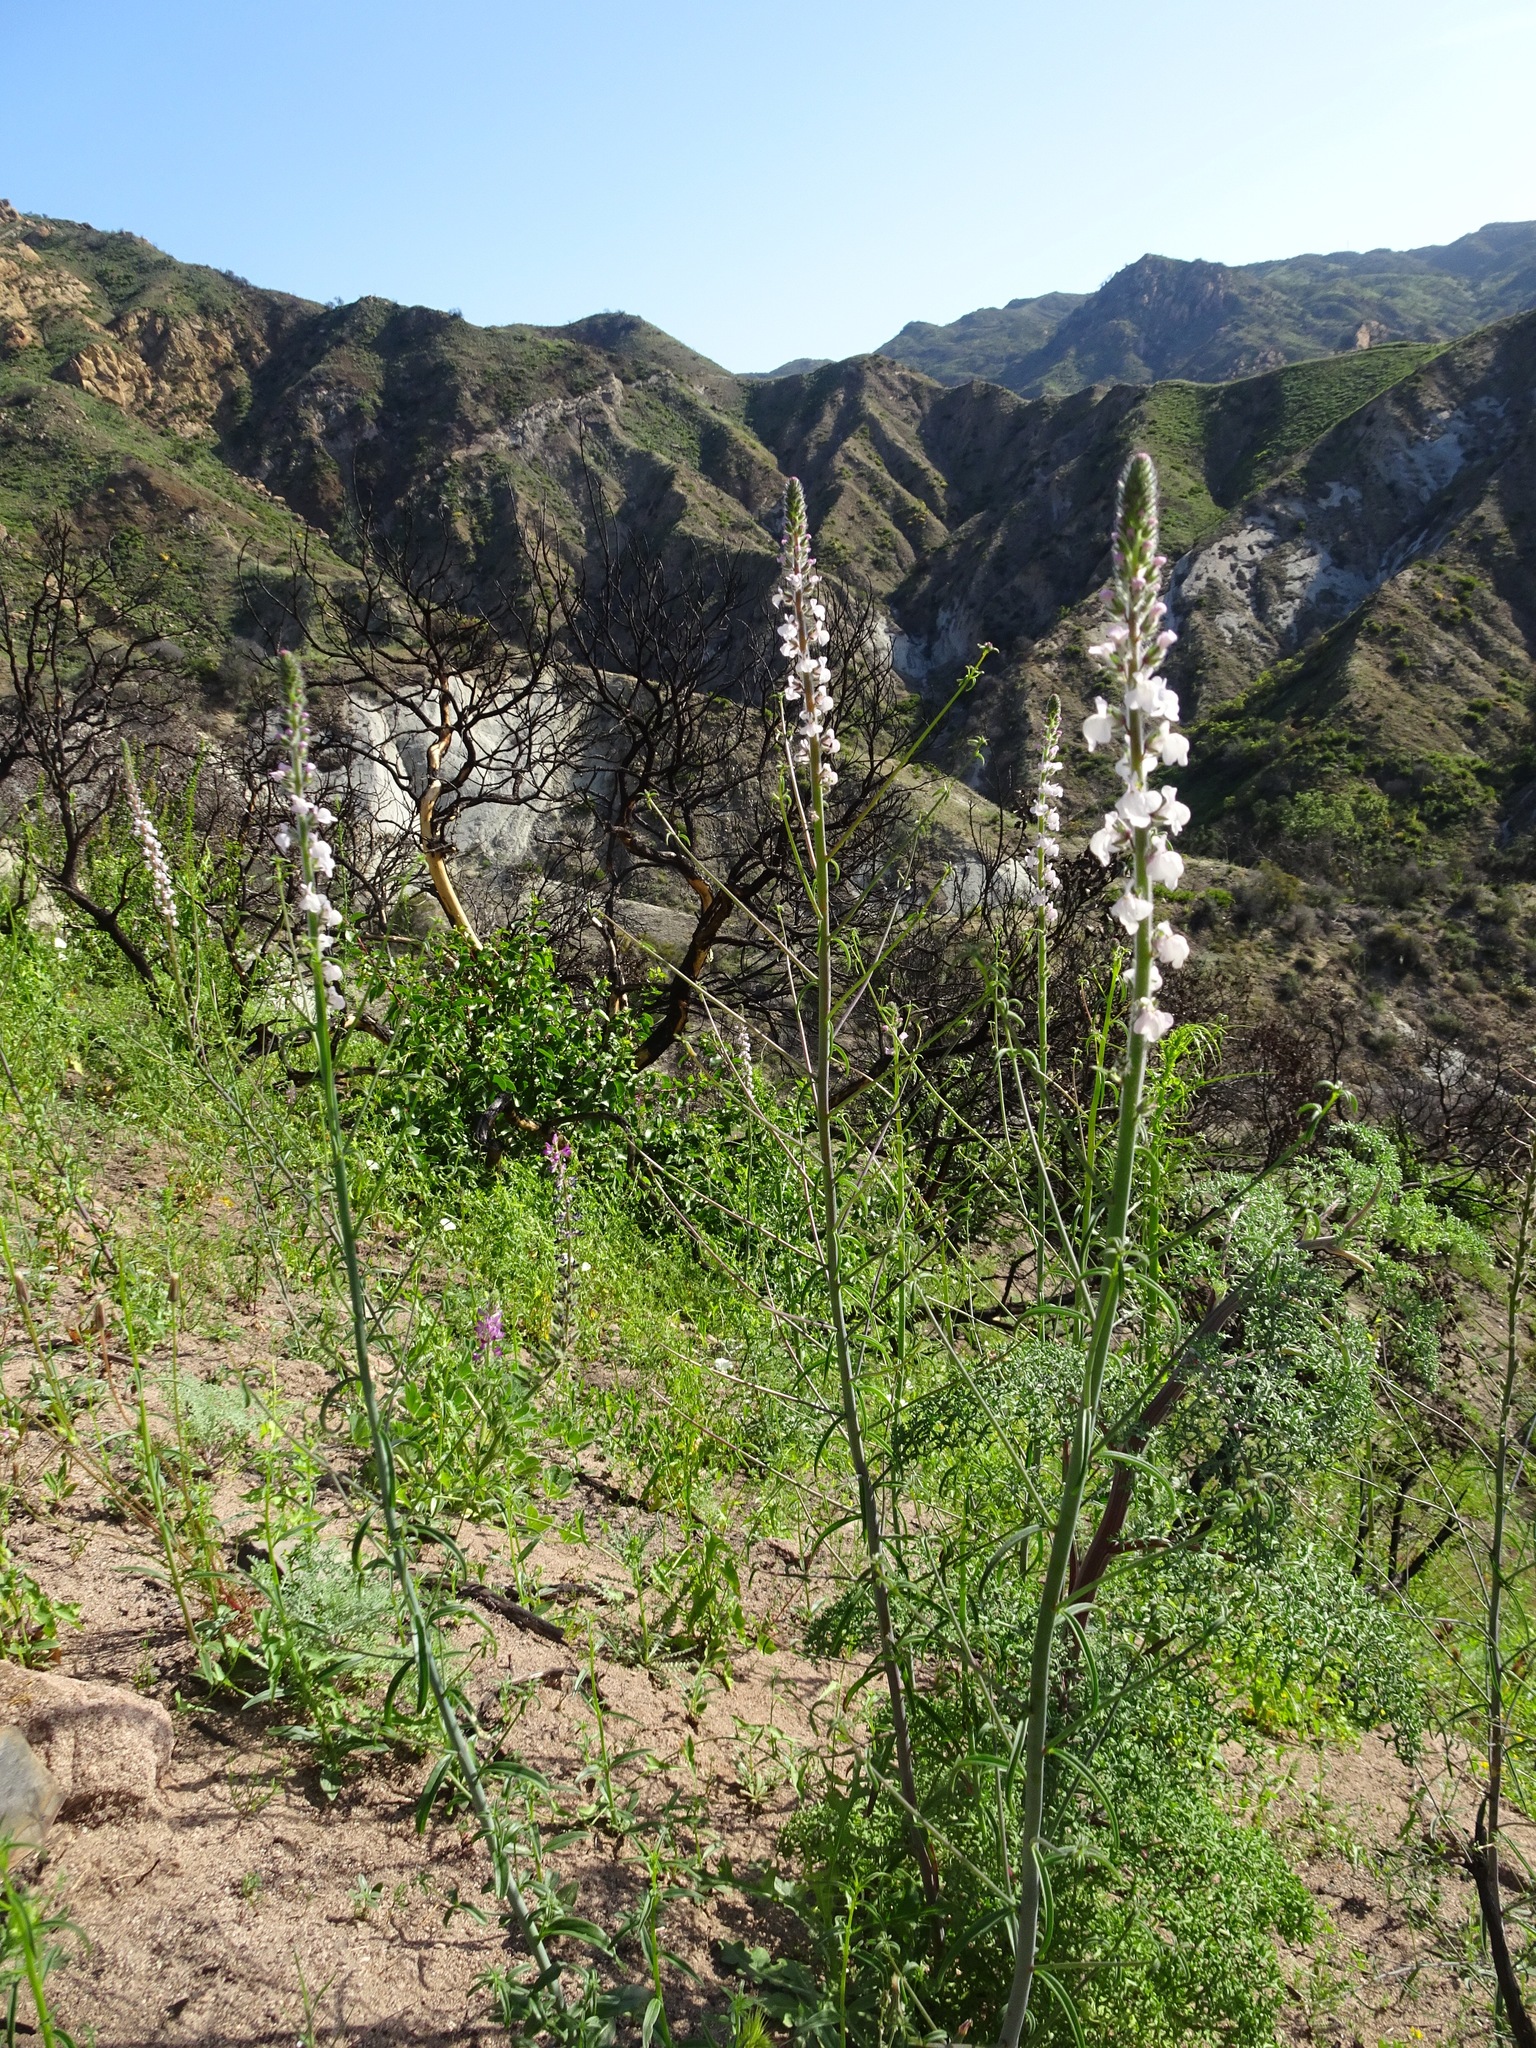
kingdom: Plantae
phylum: Tracheophyta
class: Magnoliopsida
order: Lamiales
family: Plantaginaceae
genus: Sairocarpus
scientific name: Sairocarpus coulterianus
